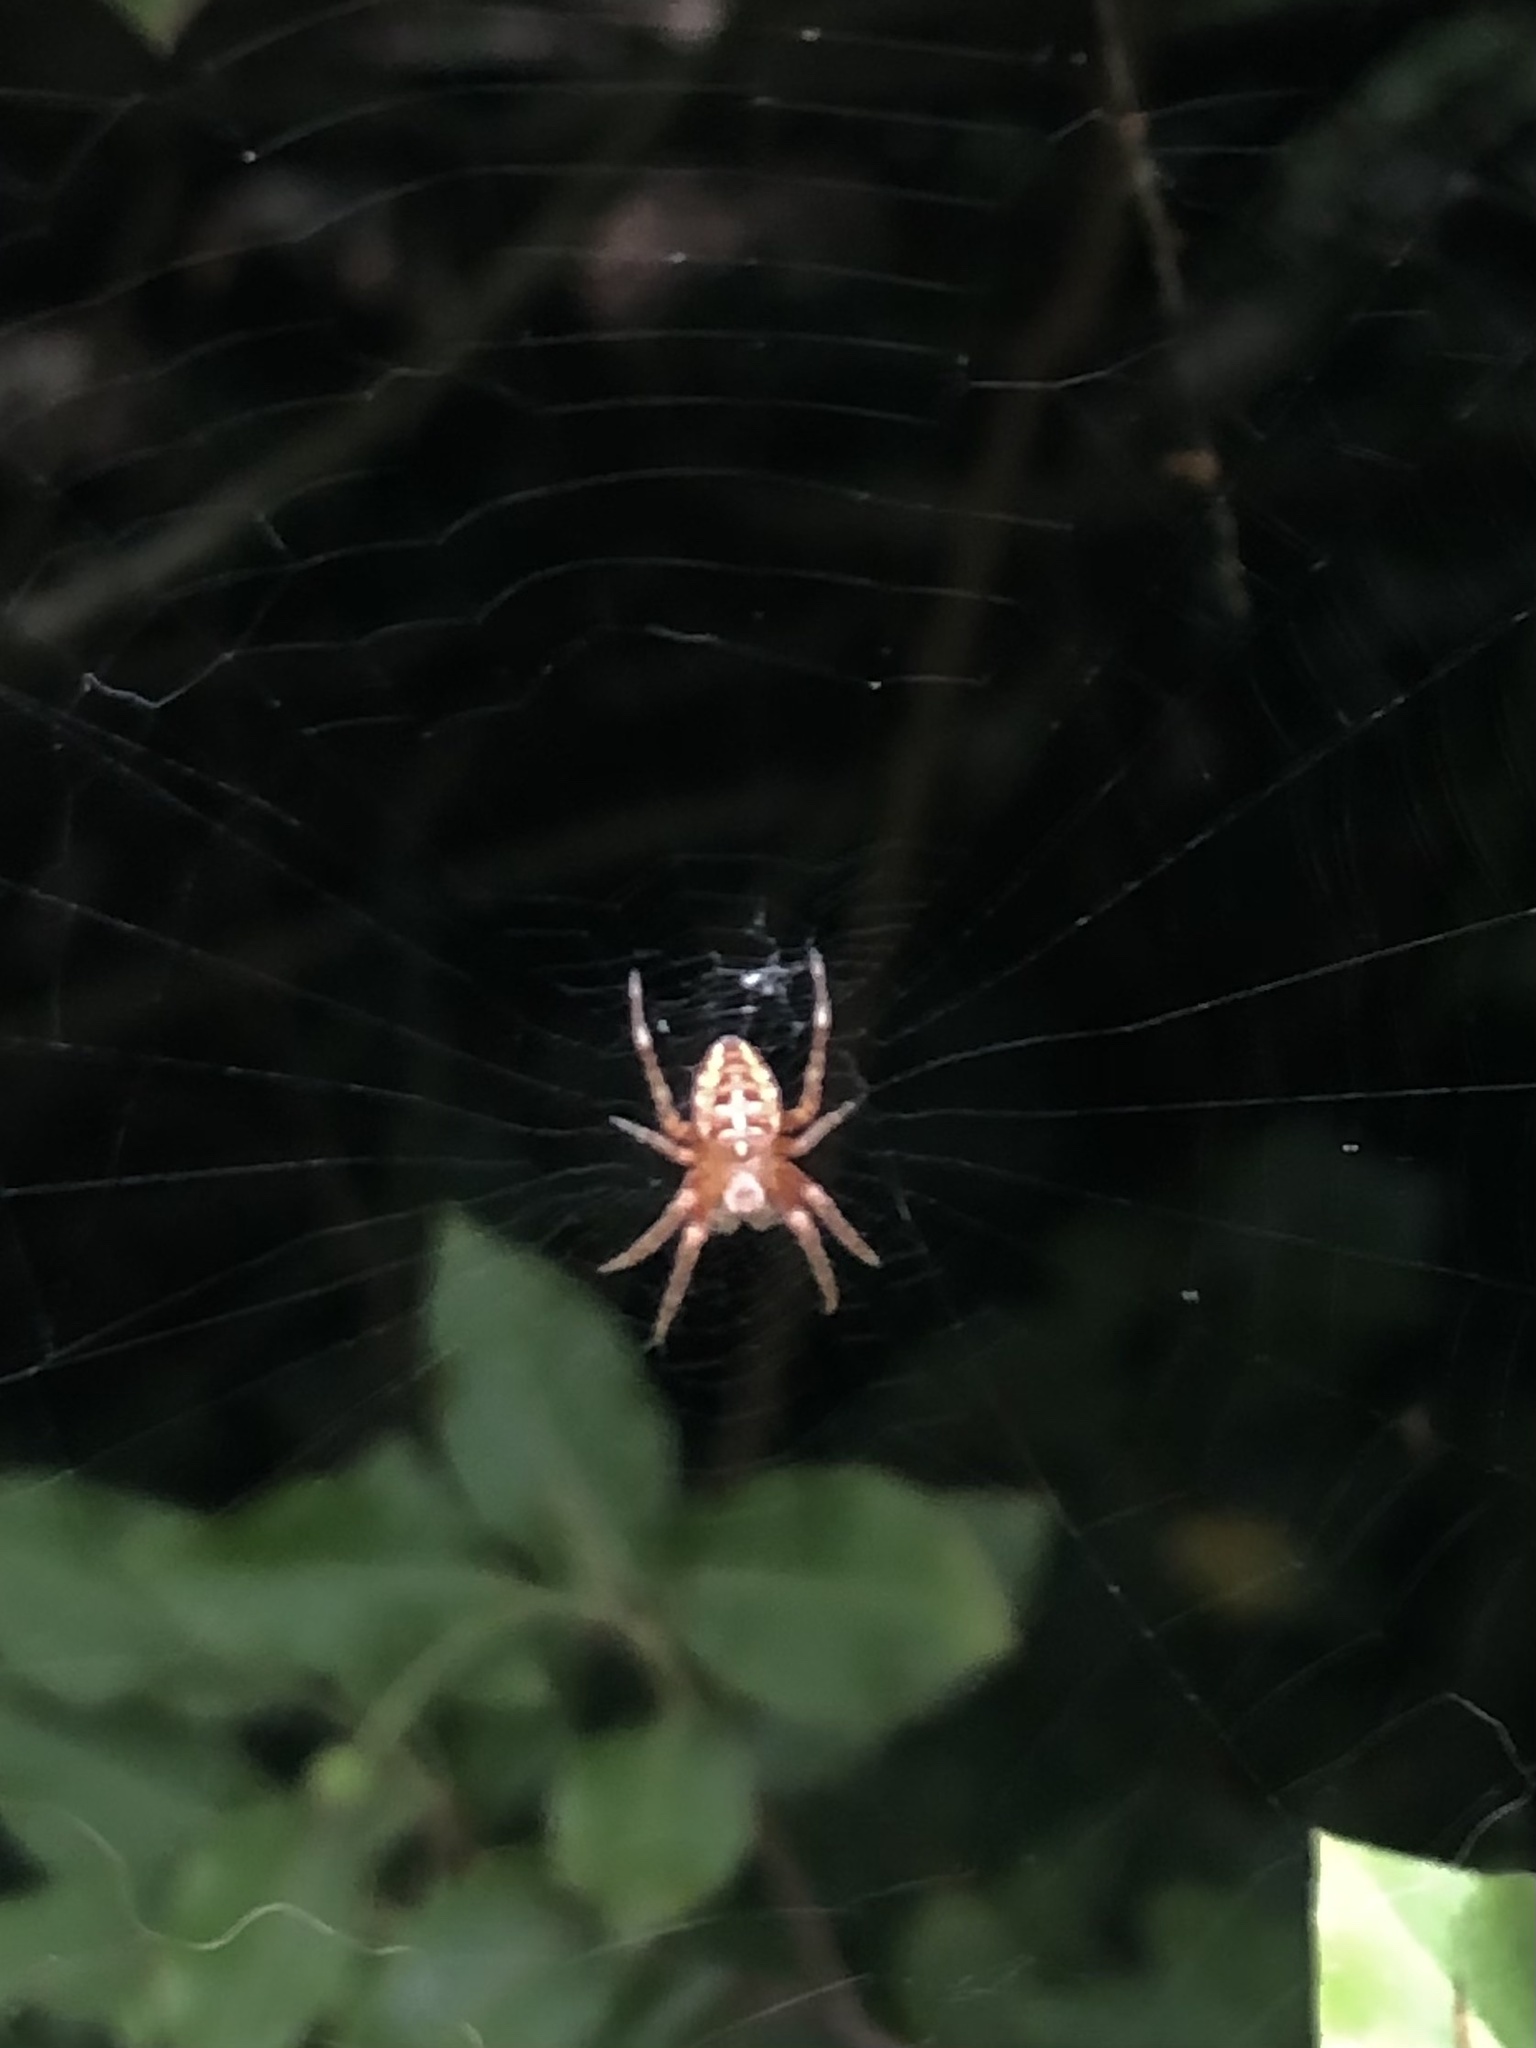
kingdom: Animalia
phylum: Arthropoda
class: Arachnida
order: Araneae
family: Araneidae
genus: Araneus
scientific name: Araneus diadematus
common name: Cross orbweaver
